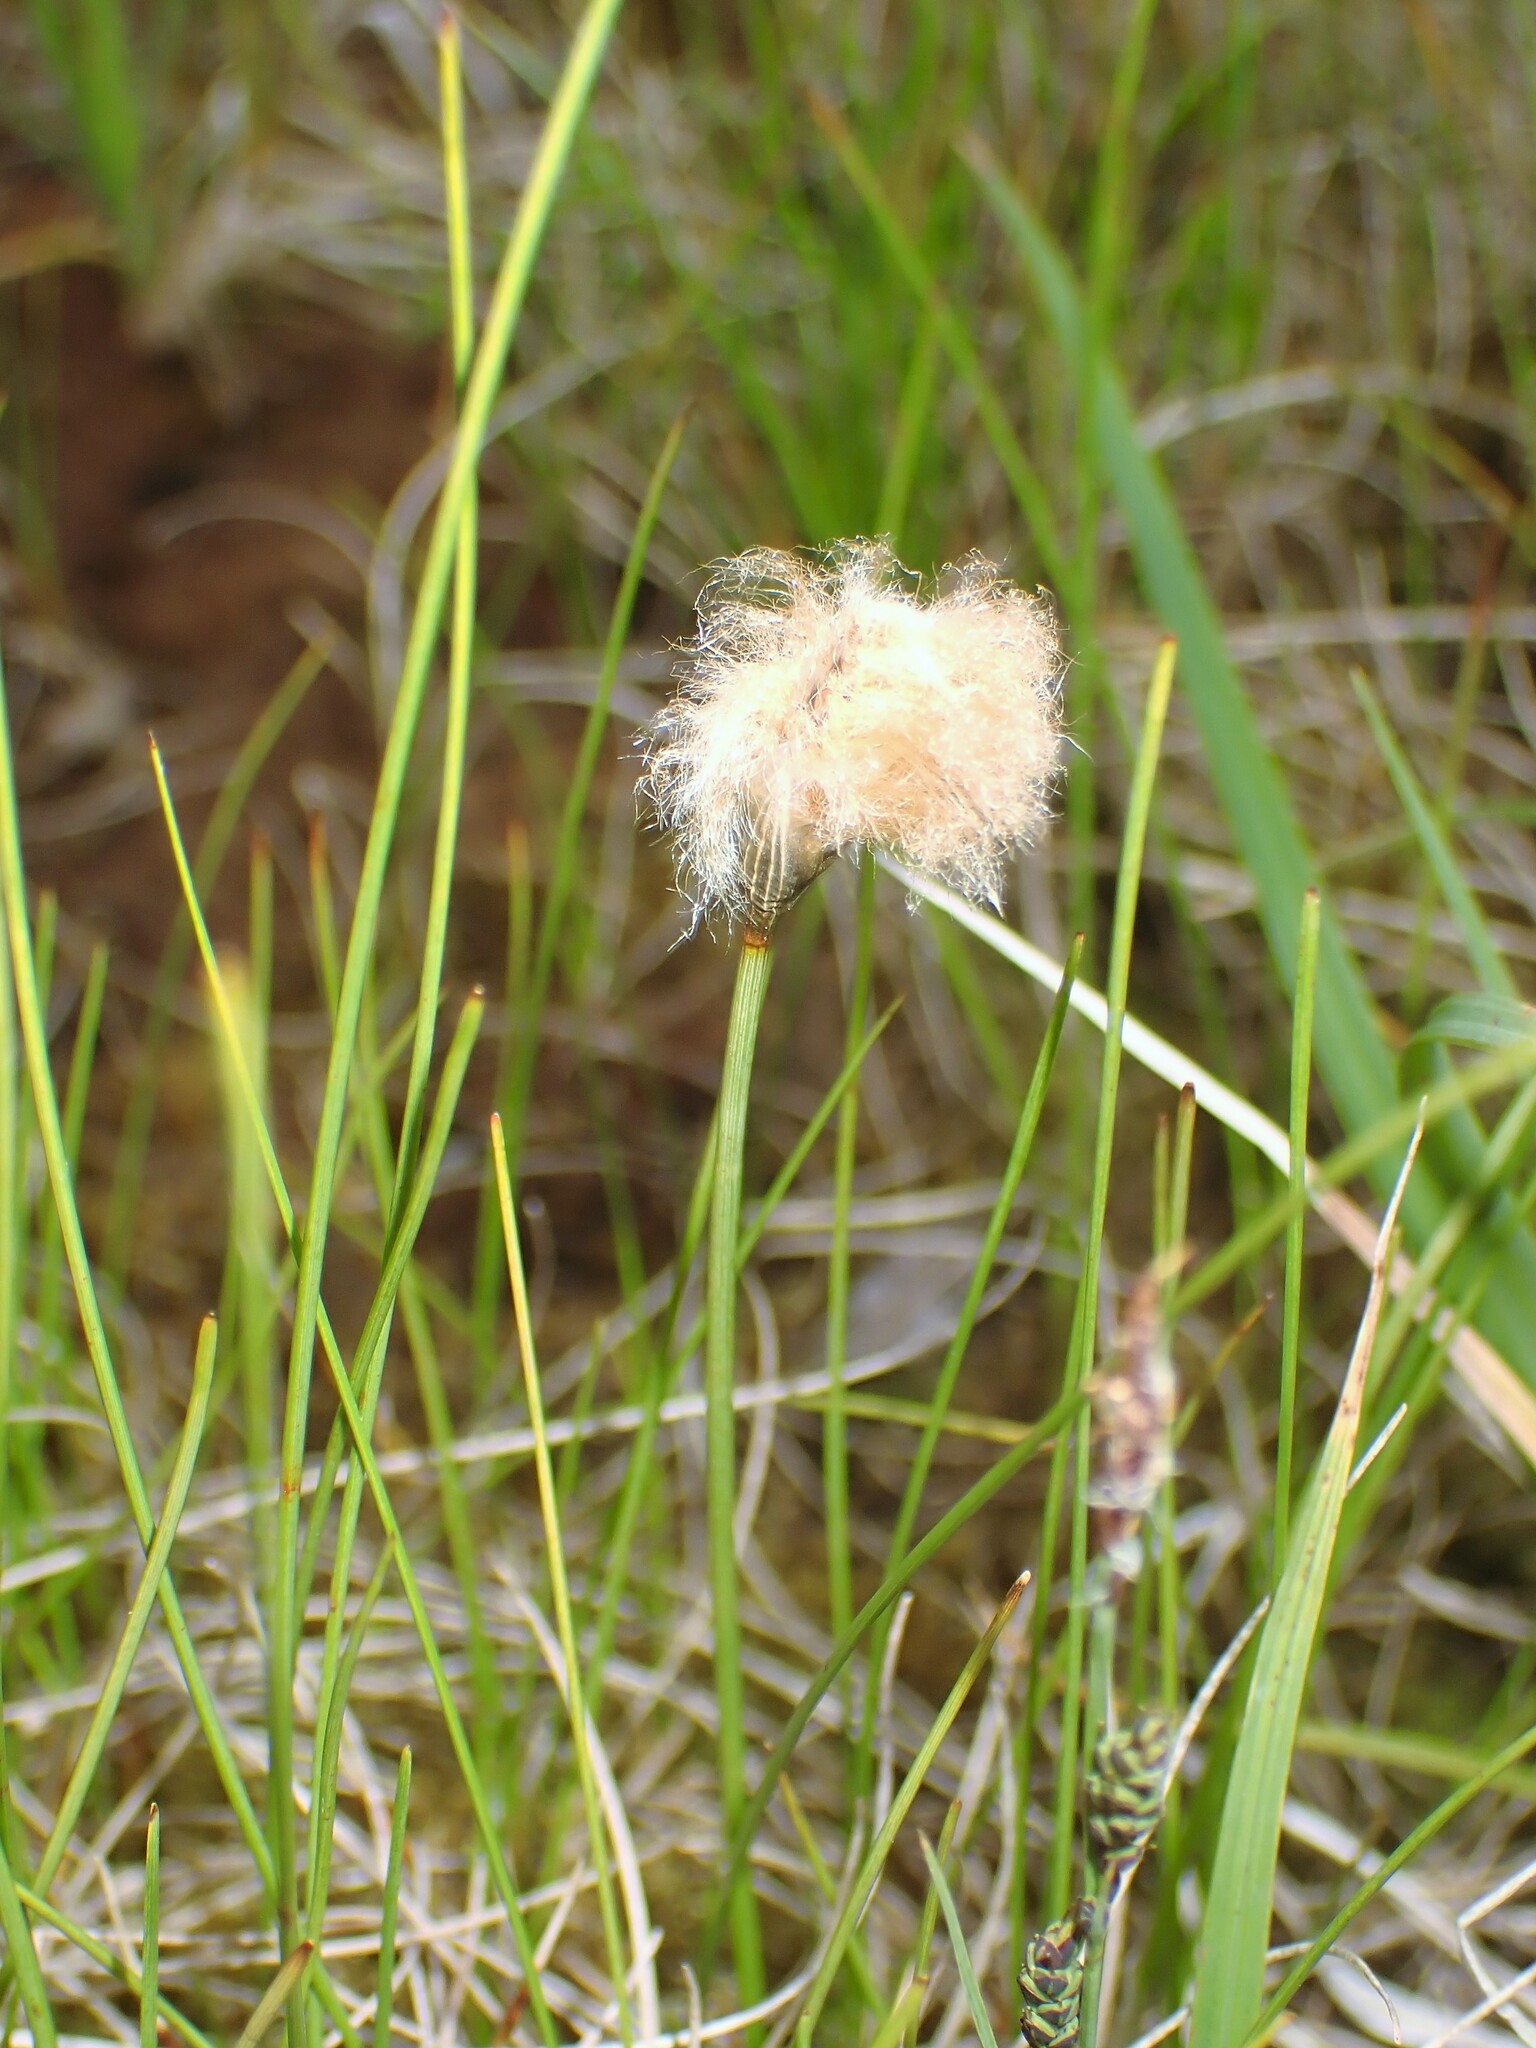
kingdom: Plantae
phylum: Tracheophyta
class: Liliopsida
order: Poales
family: Cyperaceae
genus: Eriophorum
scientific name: Eriophorum chamissonis
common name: Chamisso's cottongrass
